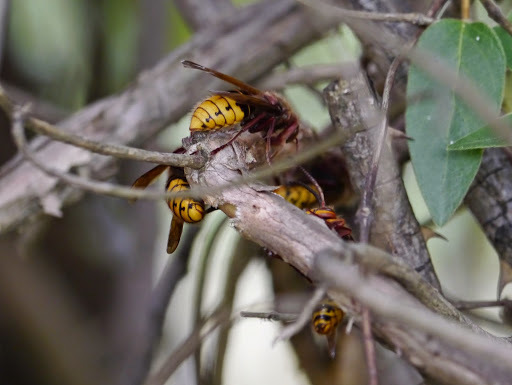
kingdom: Animalia
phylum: Arthropoda
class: Insecta
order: Hymenoptera
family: Vespidae
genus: Vespa
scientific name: Vespa crabro
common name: Hornet
